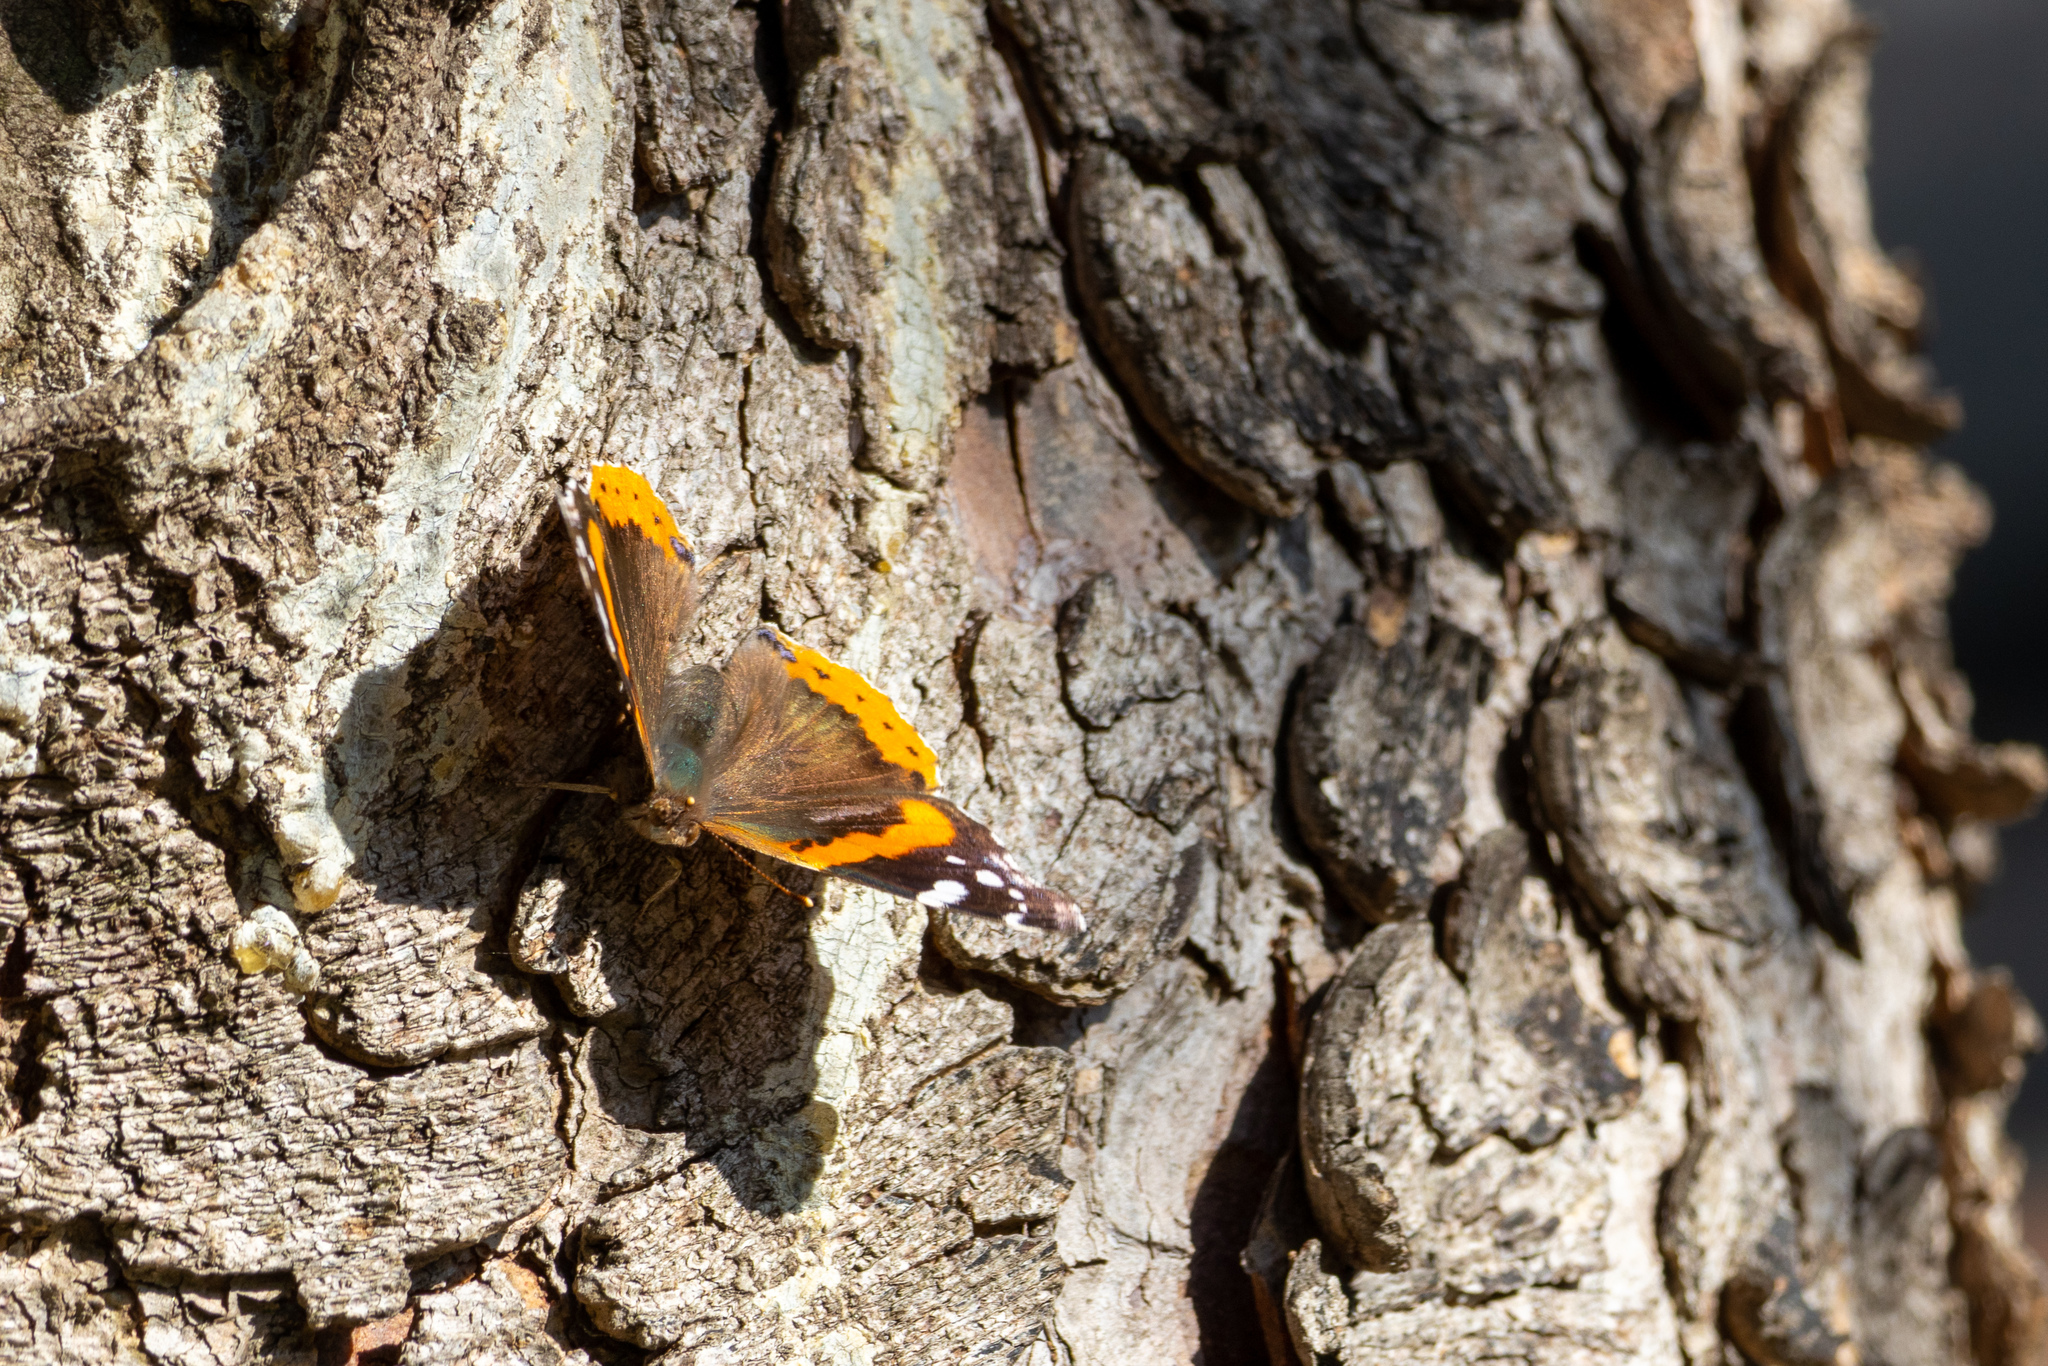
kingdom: Animalia
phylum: Arthropoda
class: Insecta
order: Lepidoptera
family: Nymphalidae
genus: Vanessa
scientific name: Vanessa atalanta
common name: Red admiral
